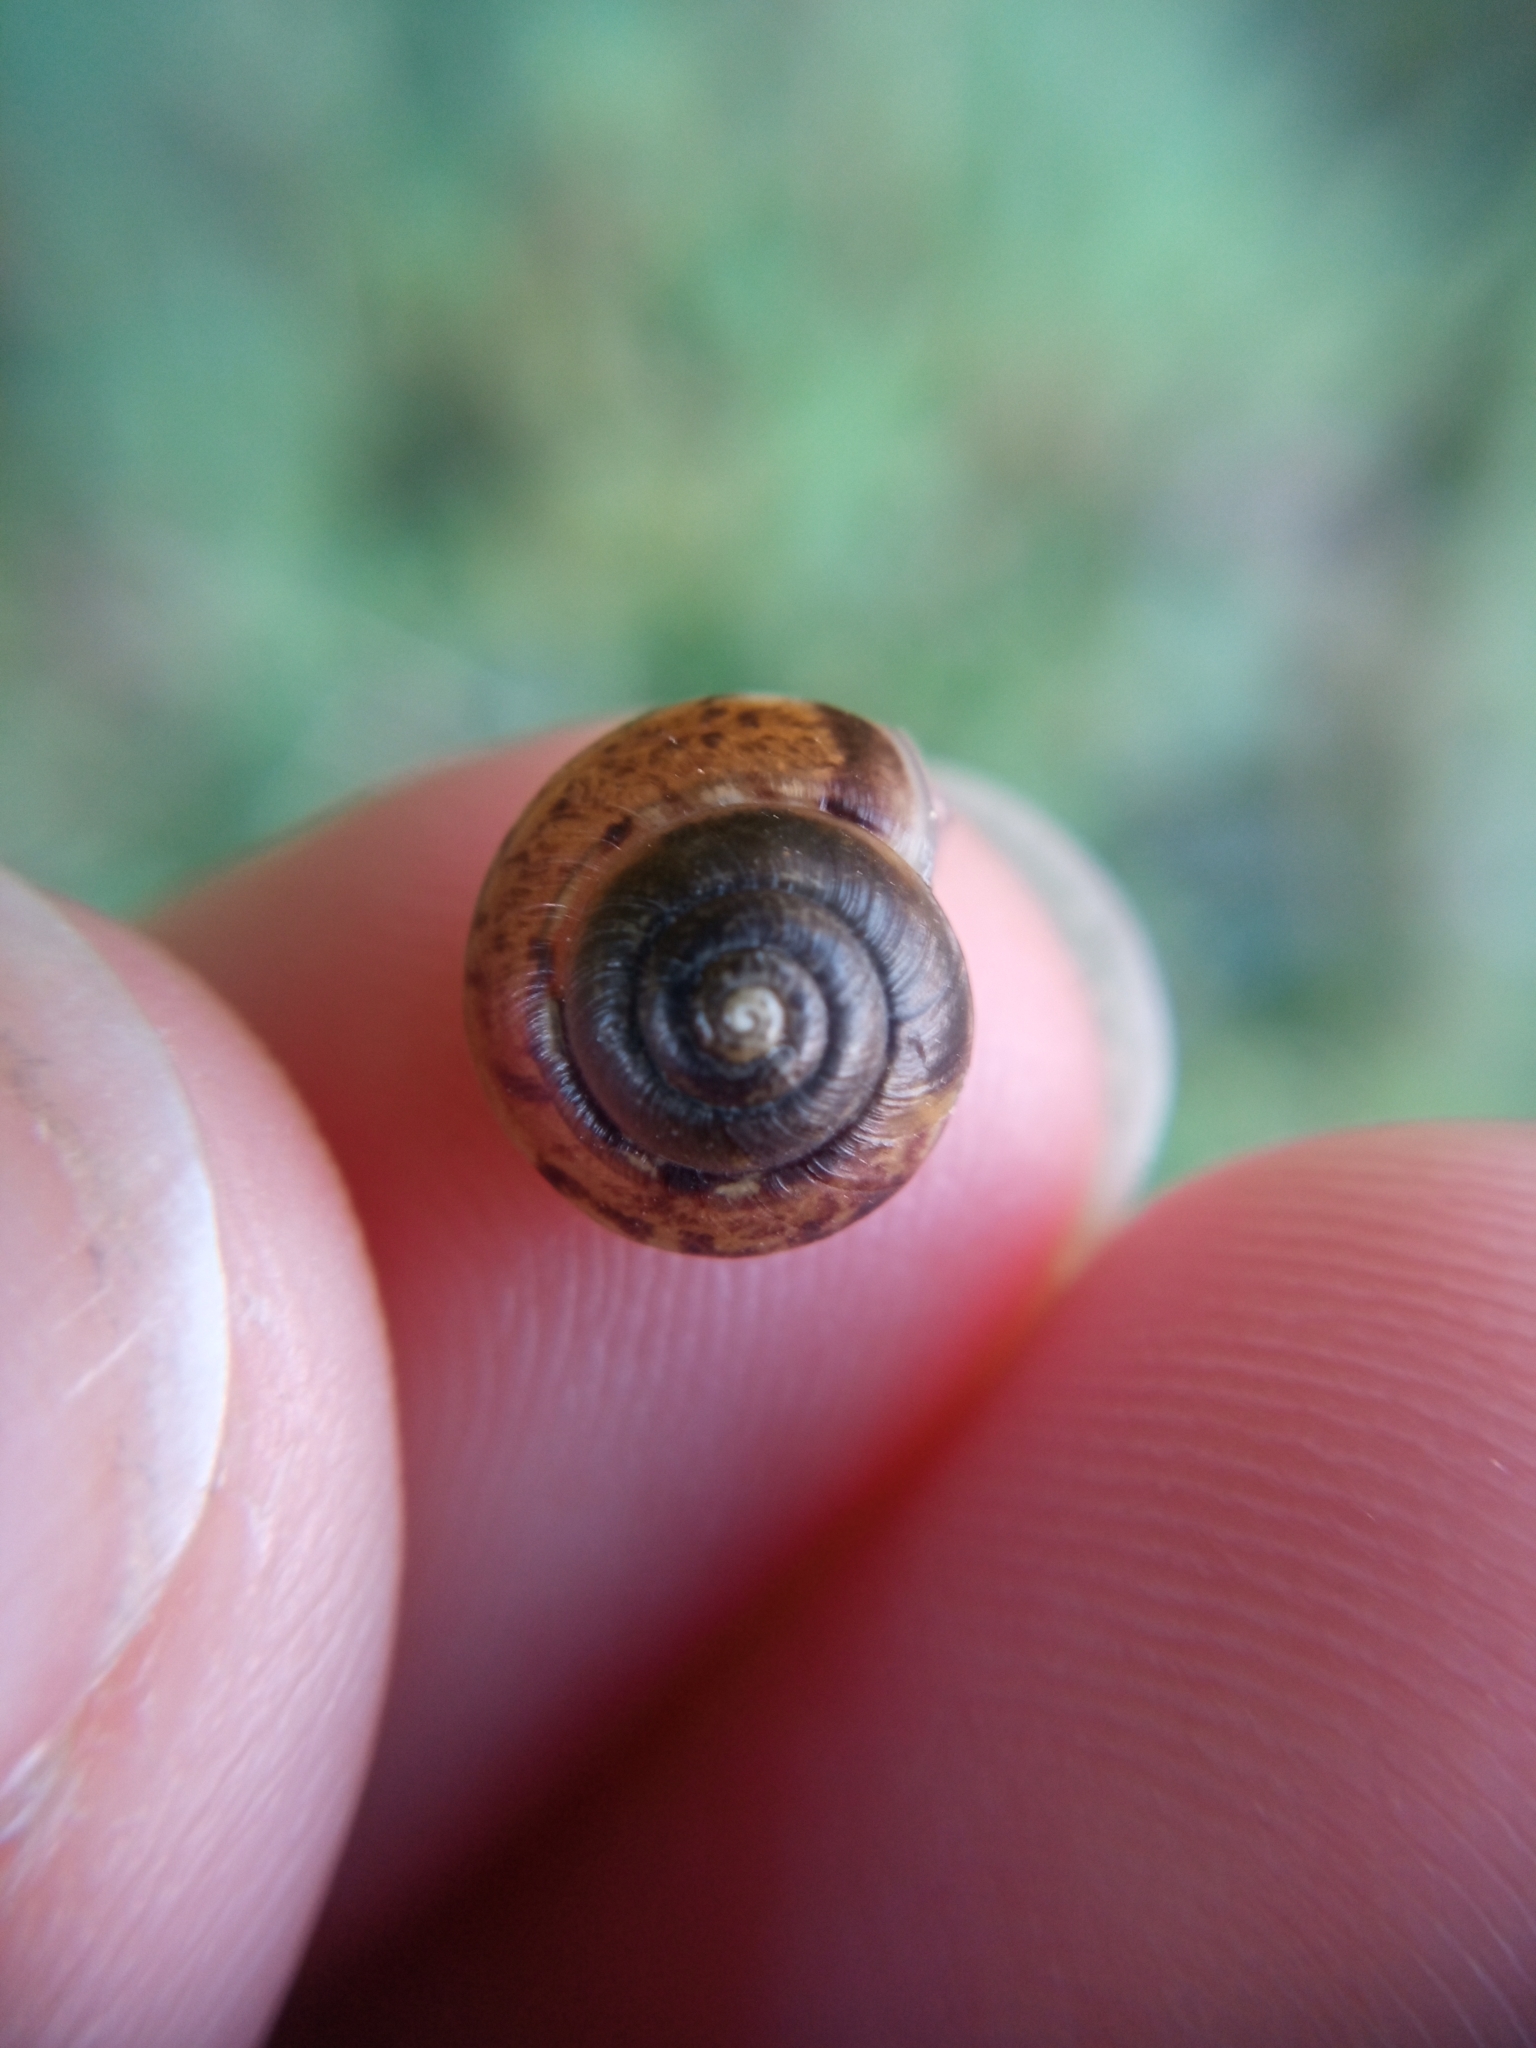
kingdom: Animalia
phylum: Mollusca
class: Gastropoda
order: Stylommatophora
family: Hygromiidae
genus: Hygromia
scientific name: Hygromia cinctella
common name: Girdled snail
